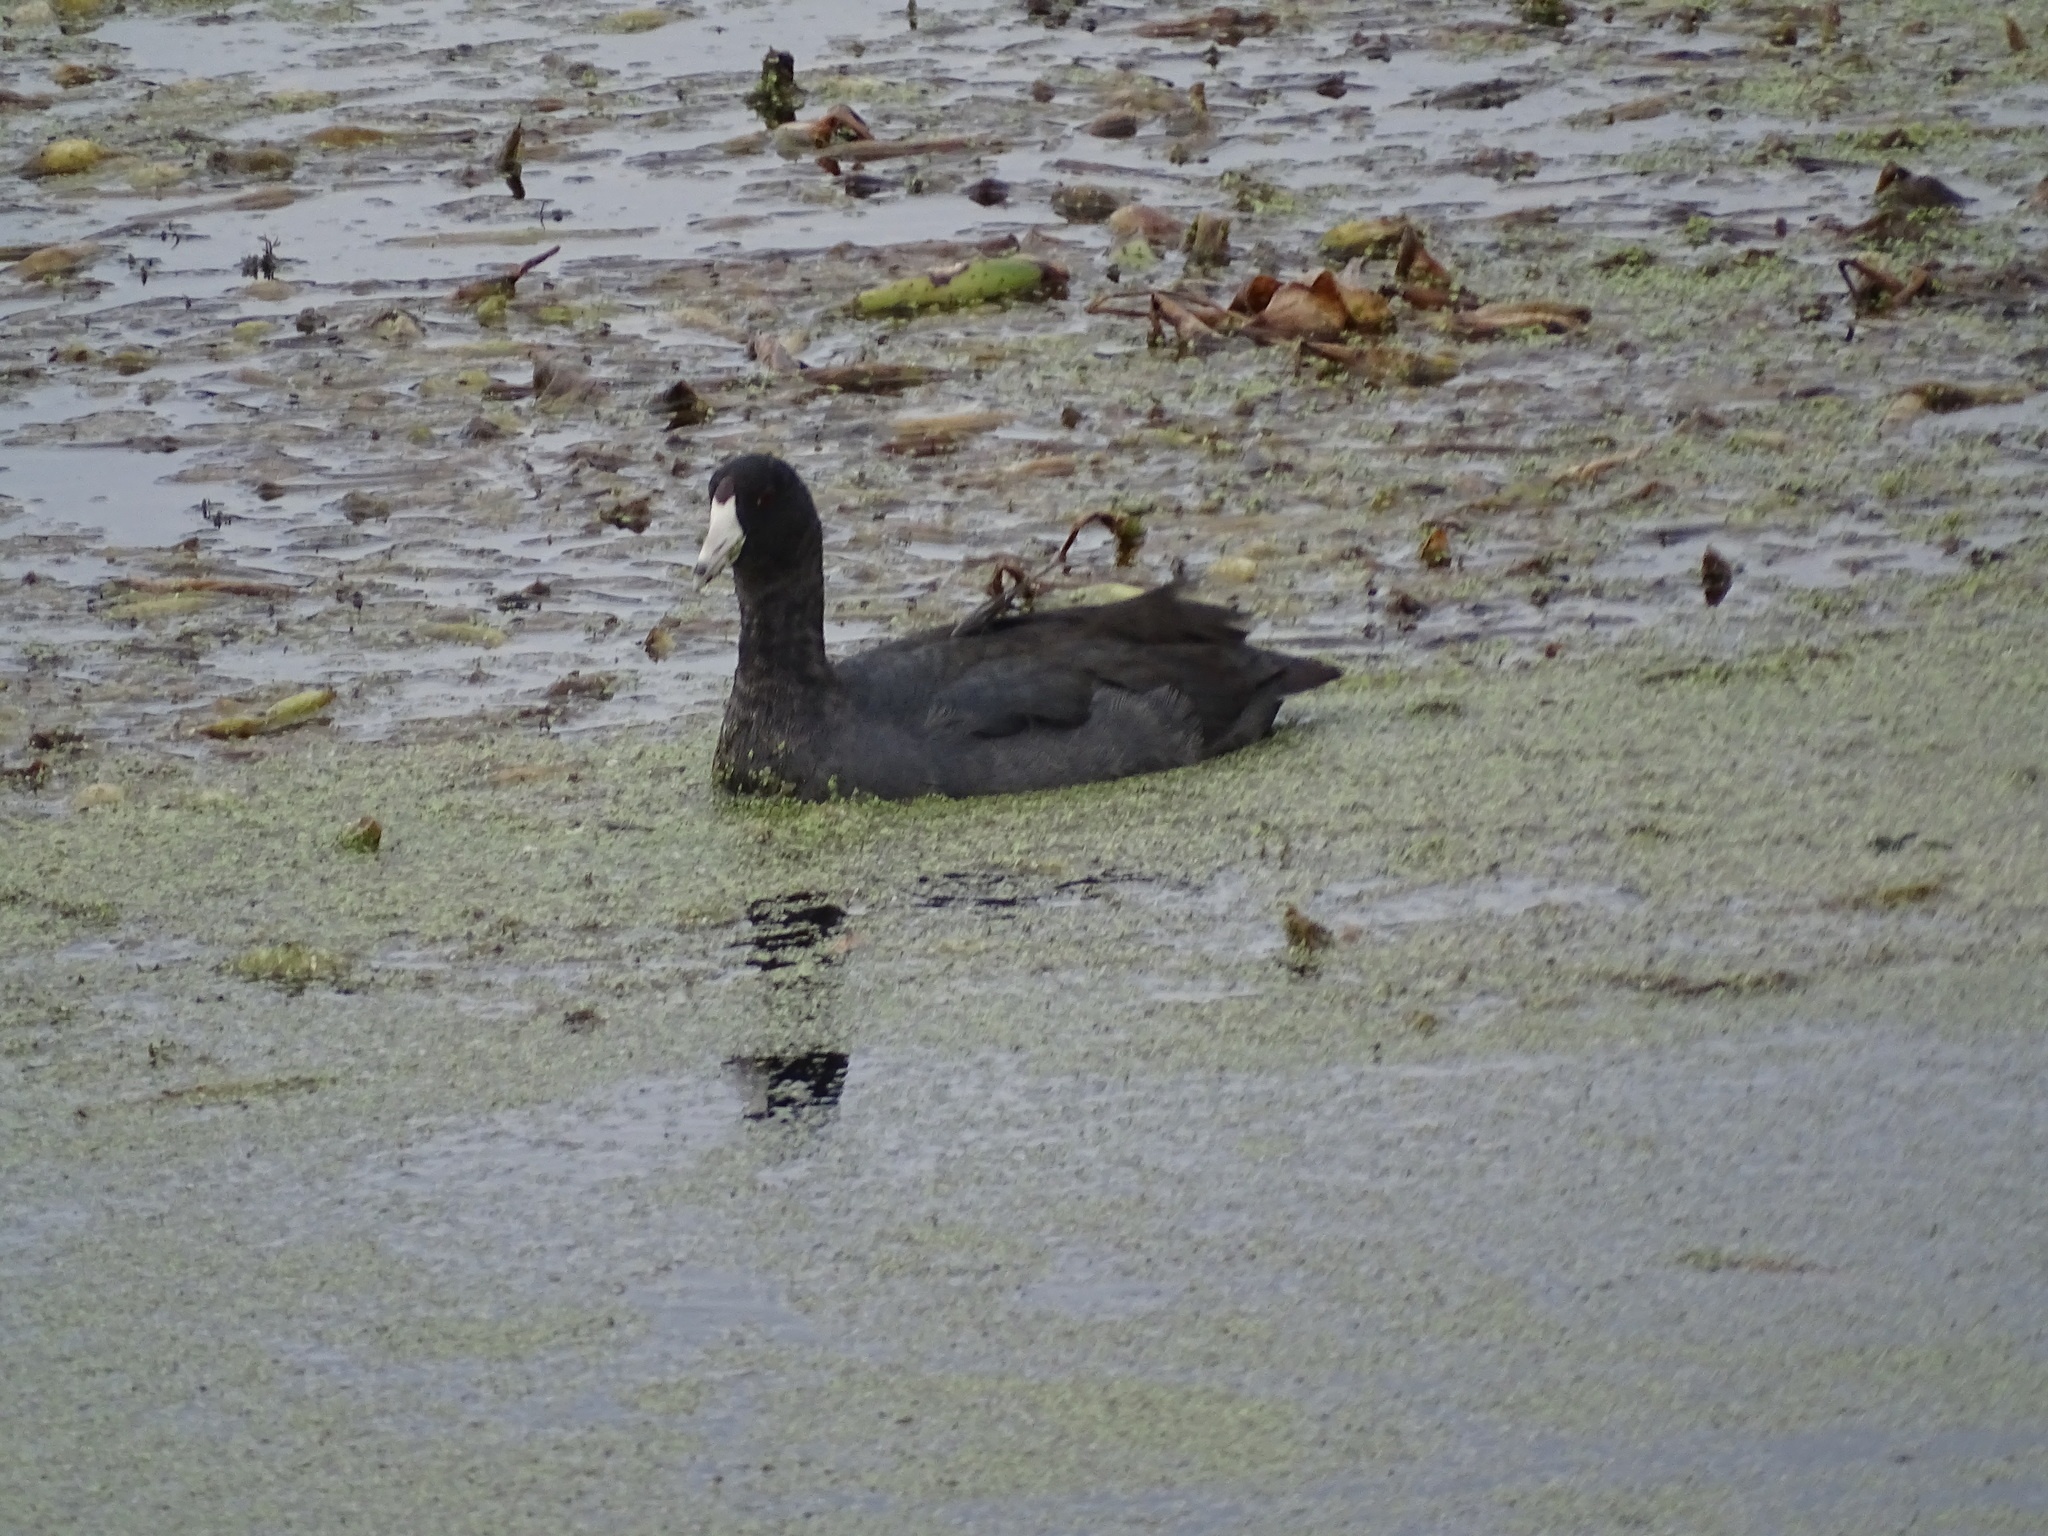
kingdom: Animalia
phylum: Chordata
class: Aves
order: Gruiformes
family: Rallidae
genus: Fulica
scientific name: Fulica americana
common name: American coot
